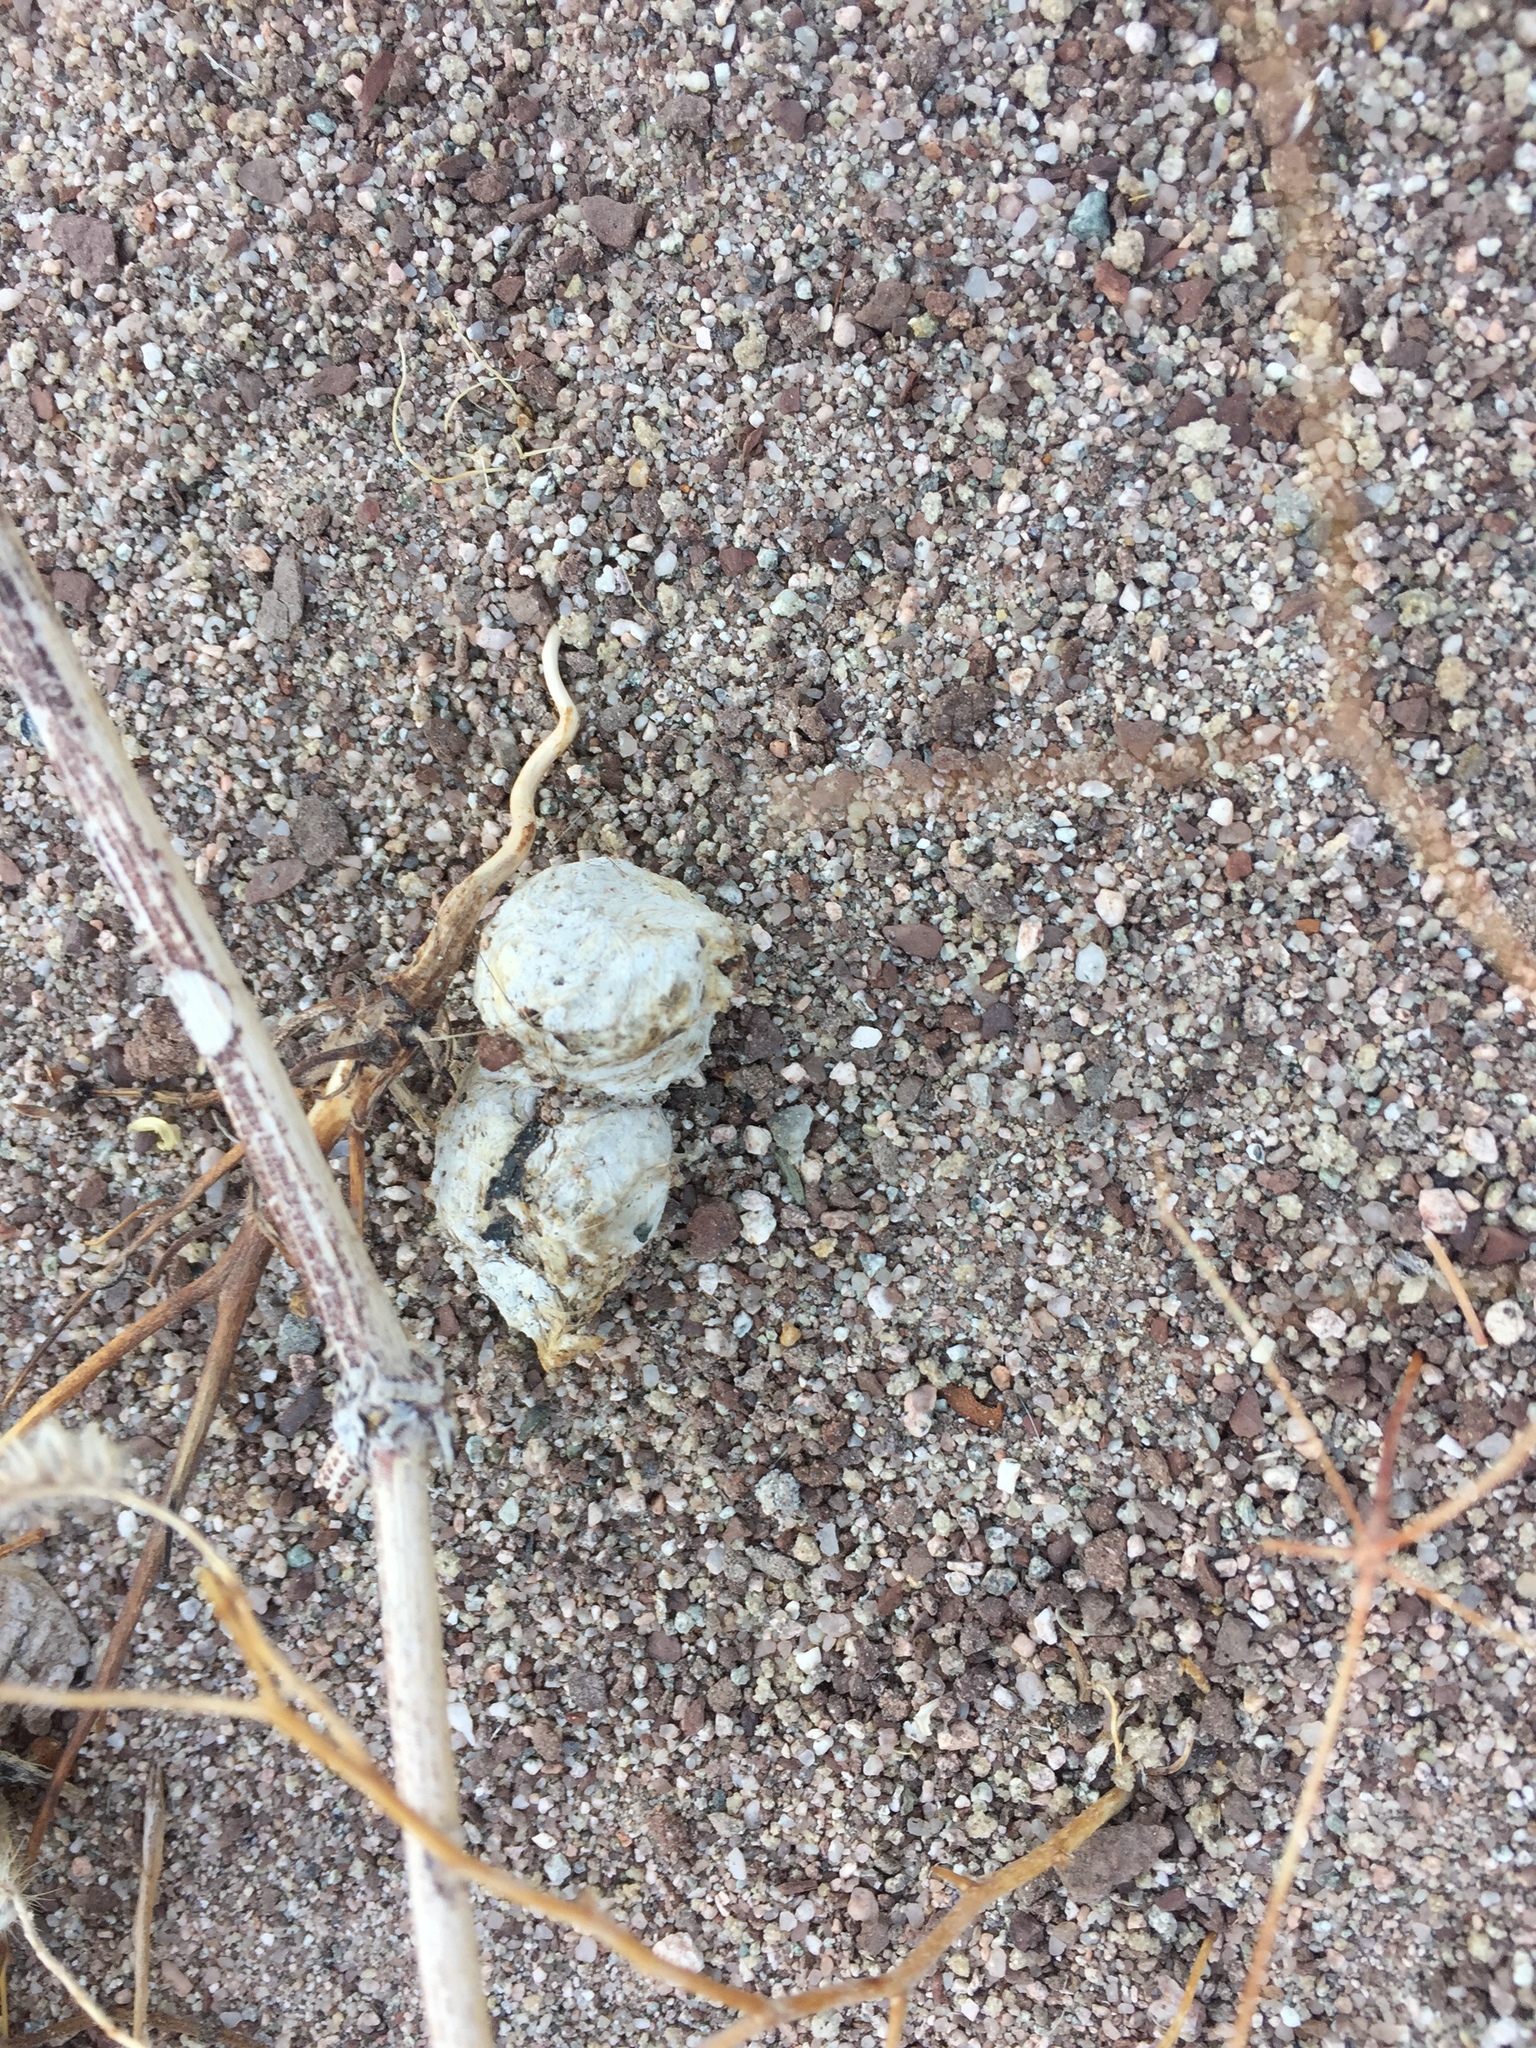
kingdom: Animalia
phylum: Chordata
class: Mammalia
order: Carnivora
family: Felidae
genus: Lynx
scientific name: Lynx rufus
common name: Bobcat
